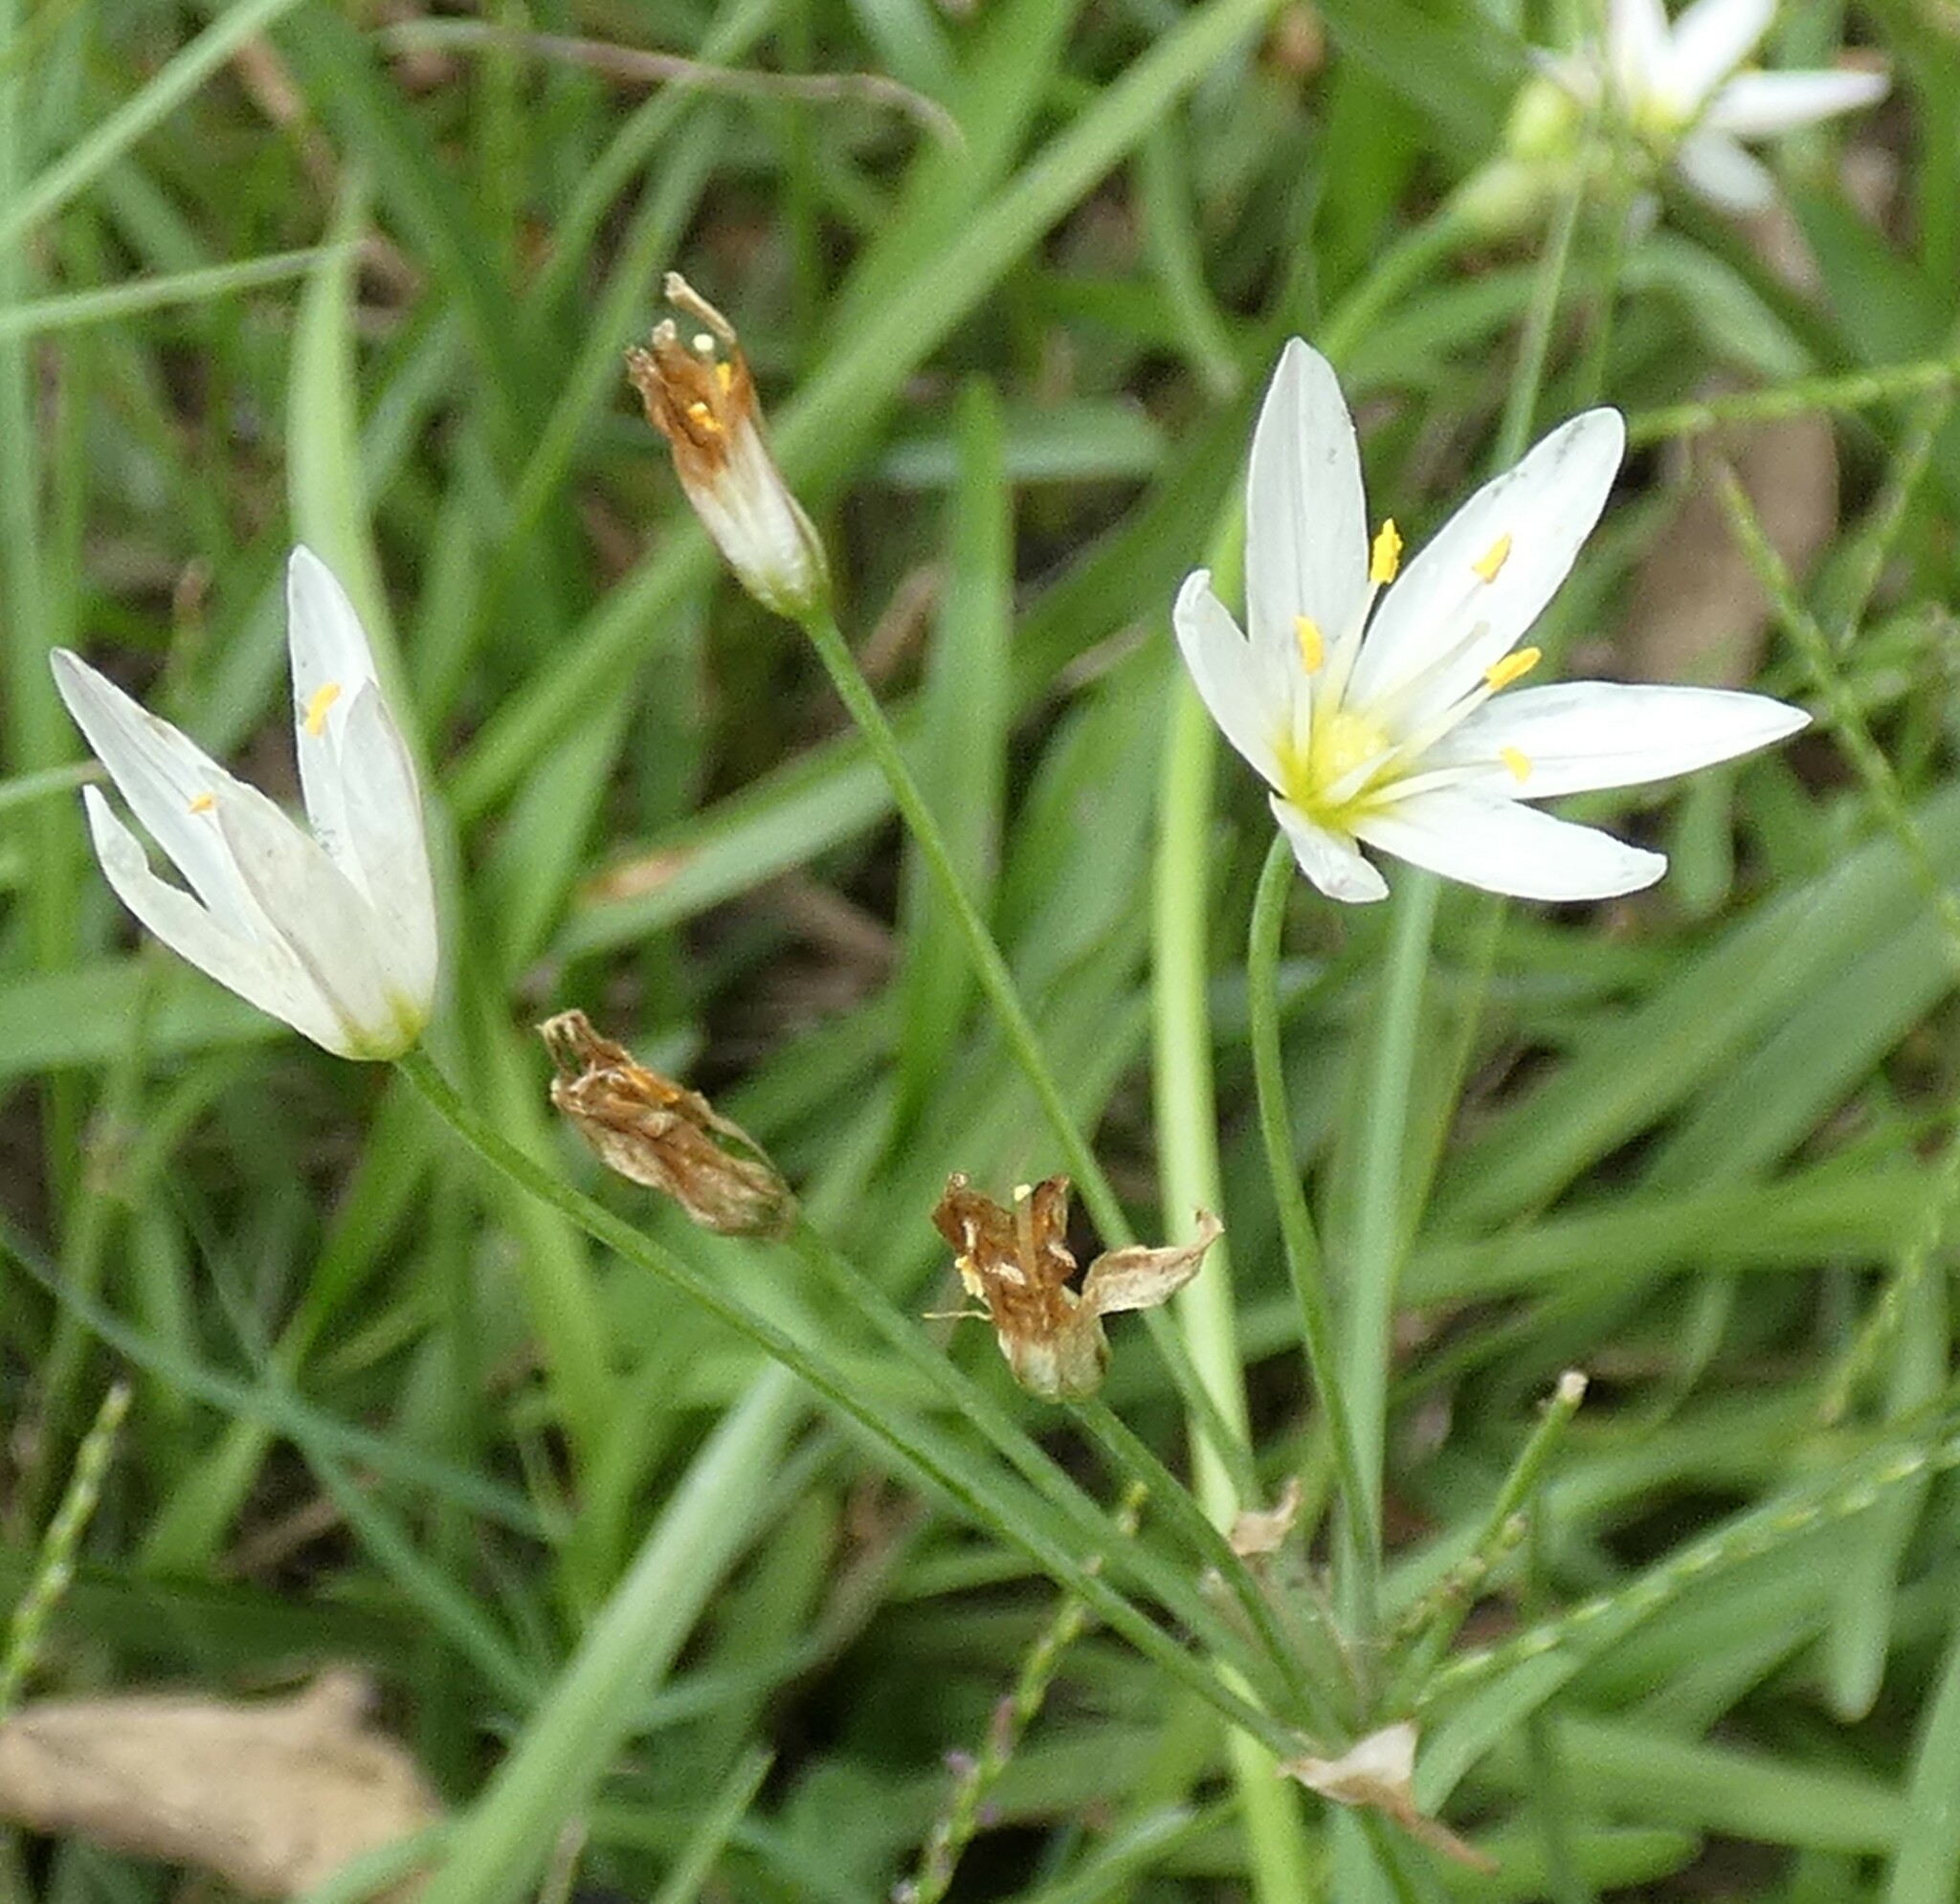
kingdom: Plantae
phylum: Tracheophyta
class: Liliopsida
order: Asparagales
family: Amaryllidaceae
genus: Nothoscordum
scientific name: Nothoscordum bivalve
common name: Crow-poison
